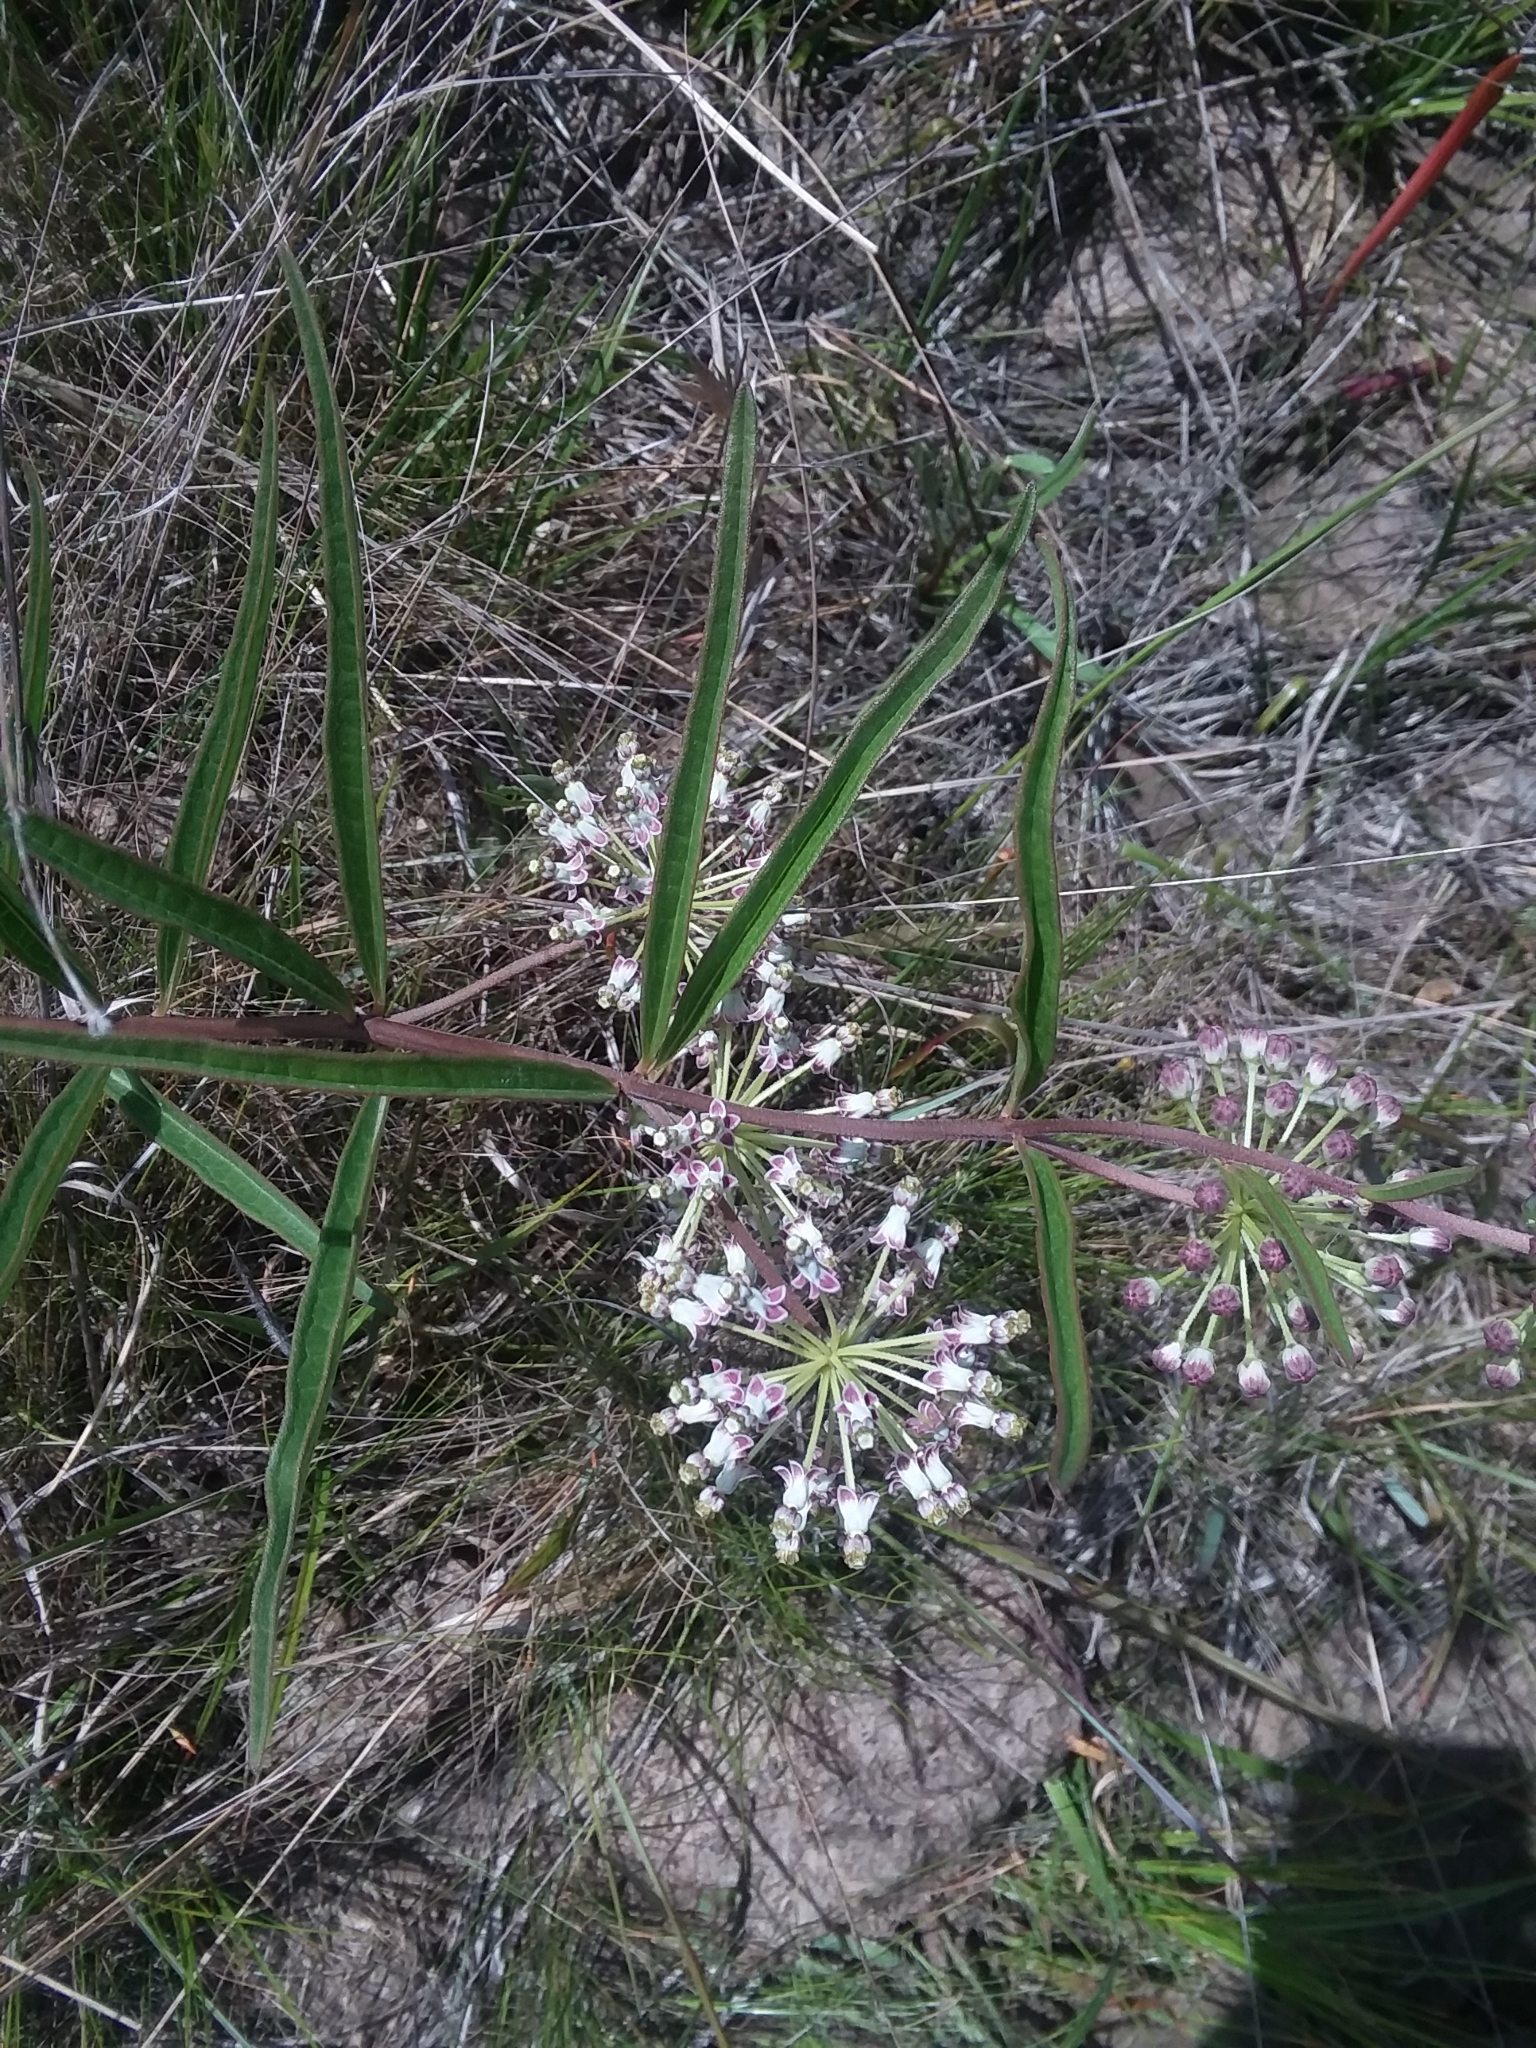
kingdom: Plantae
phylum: Tracheophyta
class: Magnoliopsida
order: Gentianales
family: Apocynaceae
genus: Asclepias
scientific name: Asclepias longifolia
